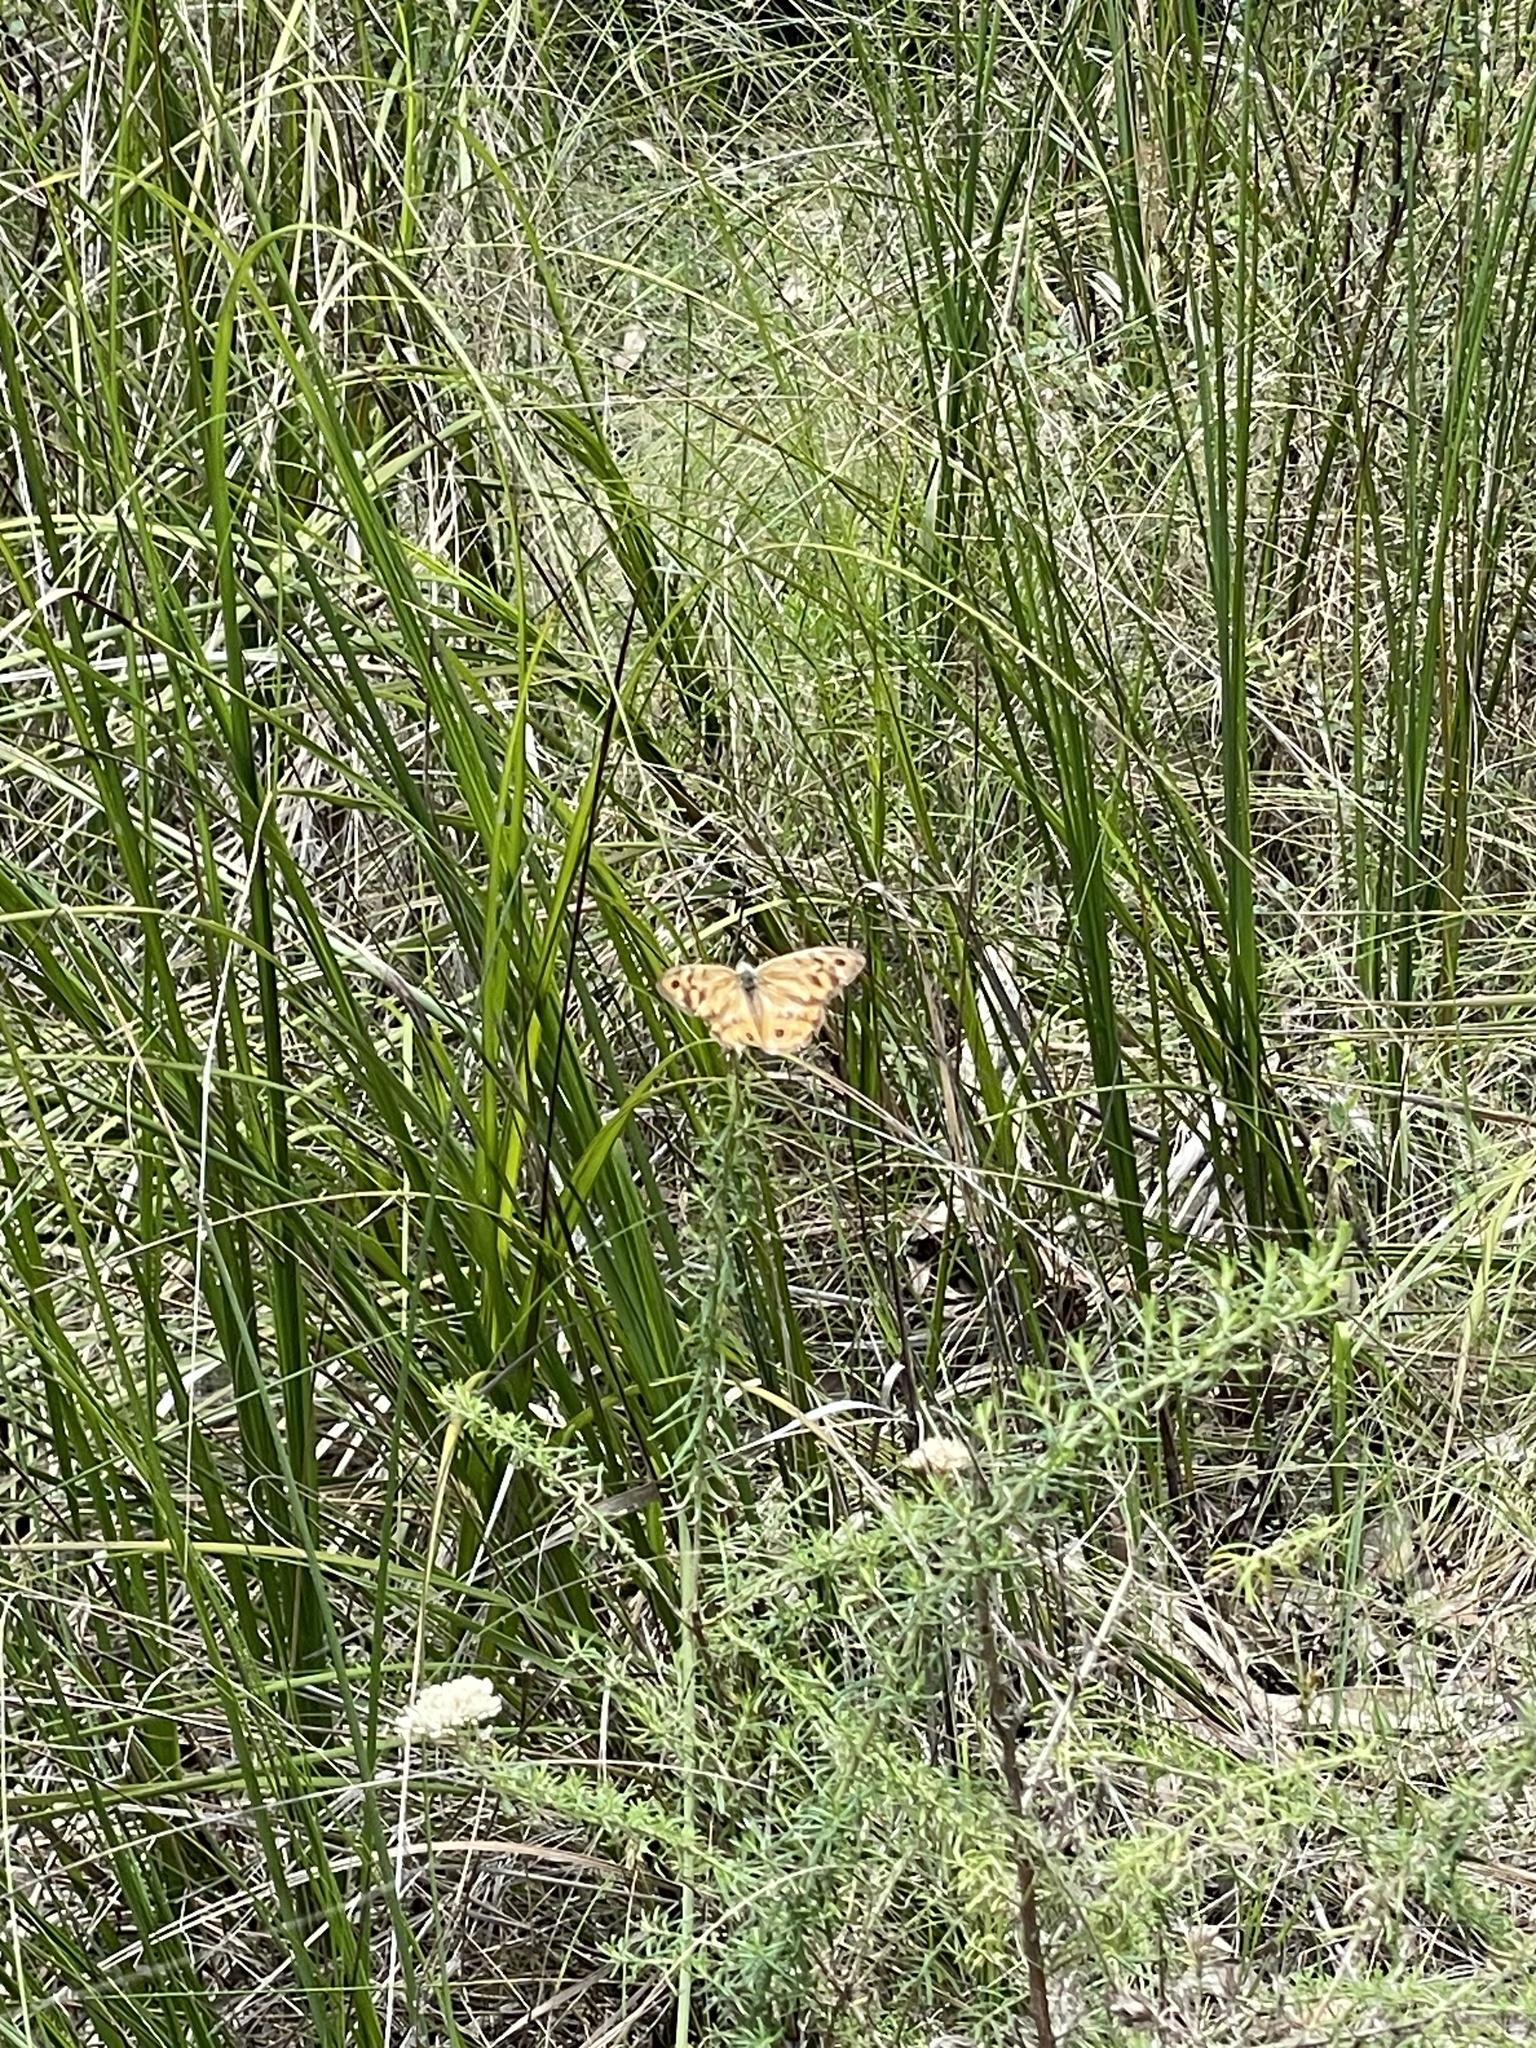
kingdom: Animalia
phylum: Arthropoda
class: Insecta
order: Lepidoptera
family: Nymphalidae
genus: Heteronympha
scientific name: Heteronympha merope
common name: Common brown
